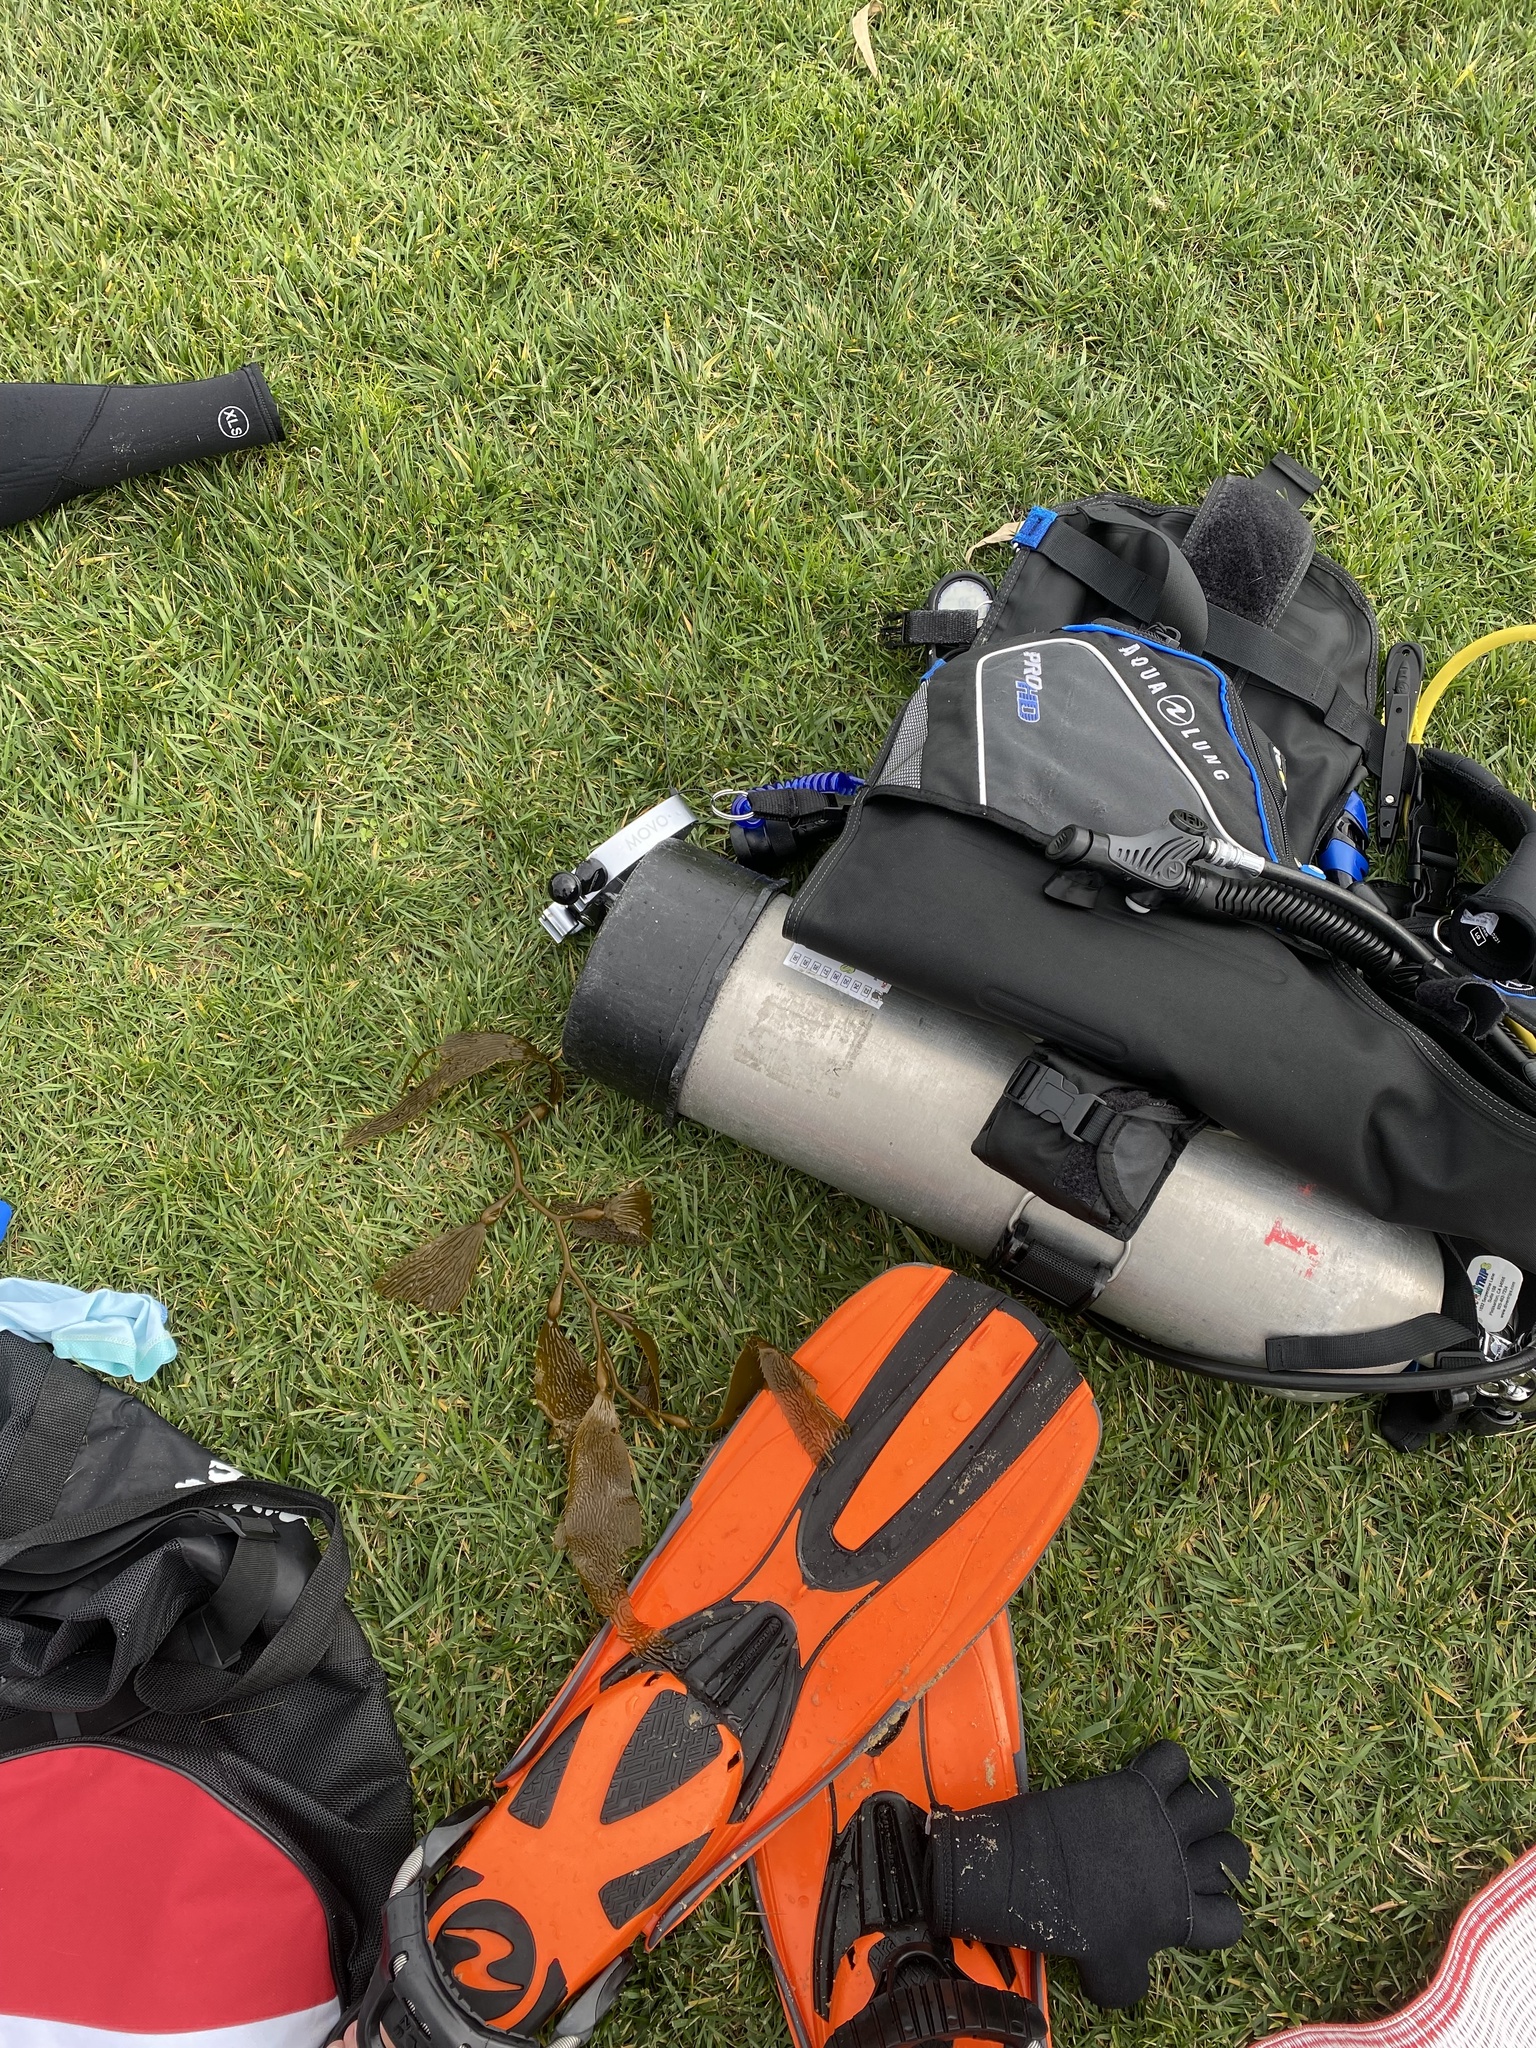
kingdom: Chromista
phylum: Ochrophyta
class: Phaeophyceae
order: Laminariales
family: Laminariaceae
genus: Macrocystis
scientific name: Macrocystis pyrifera
